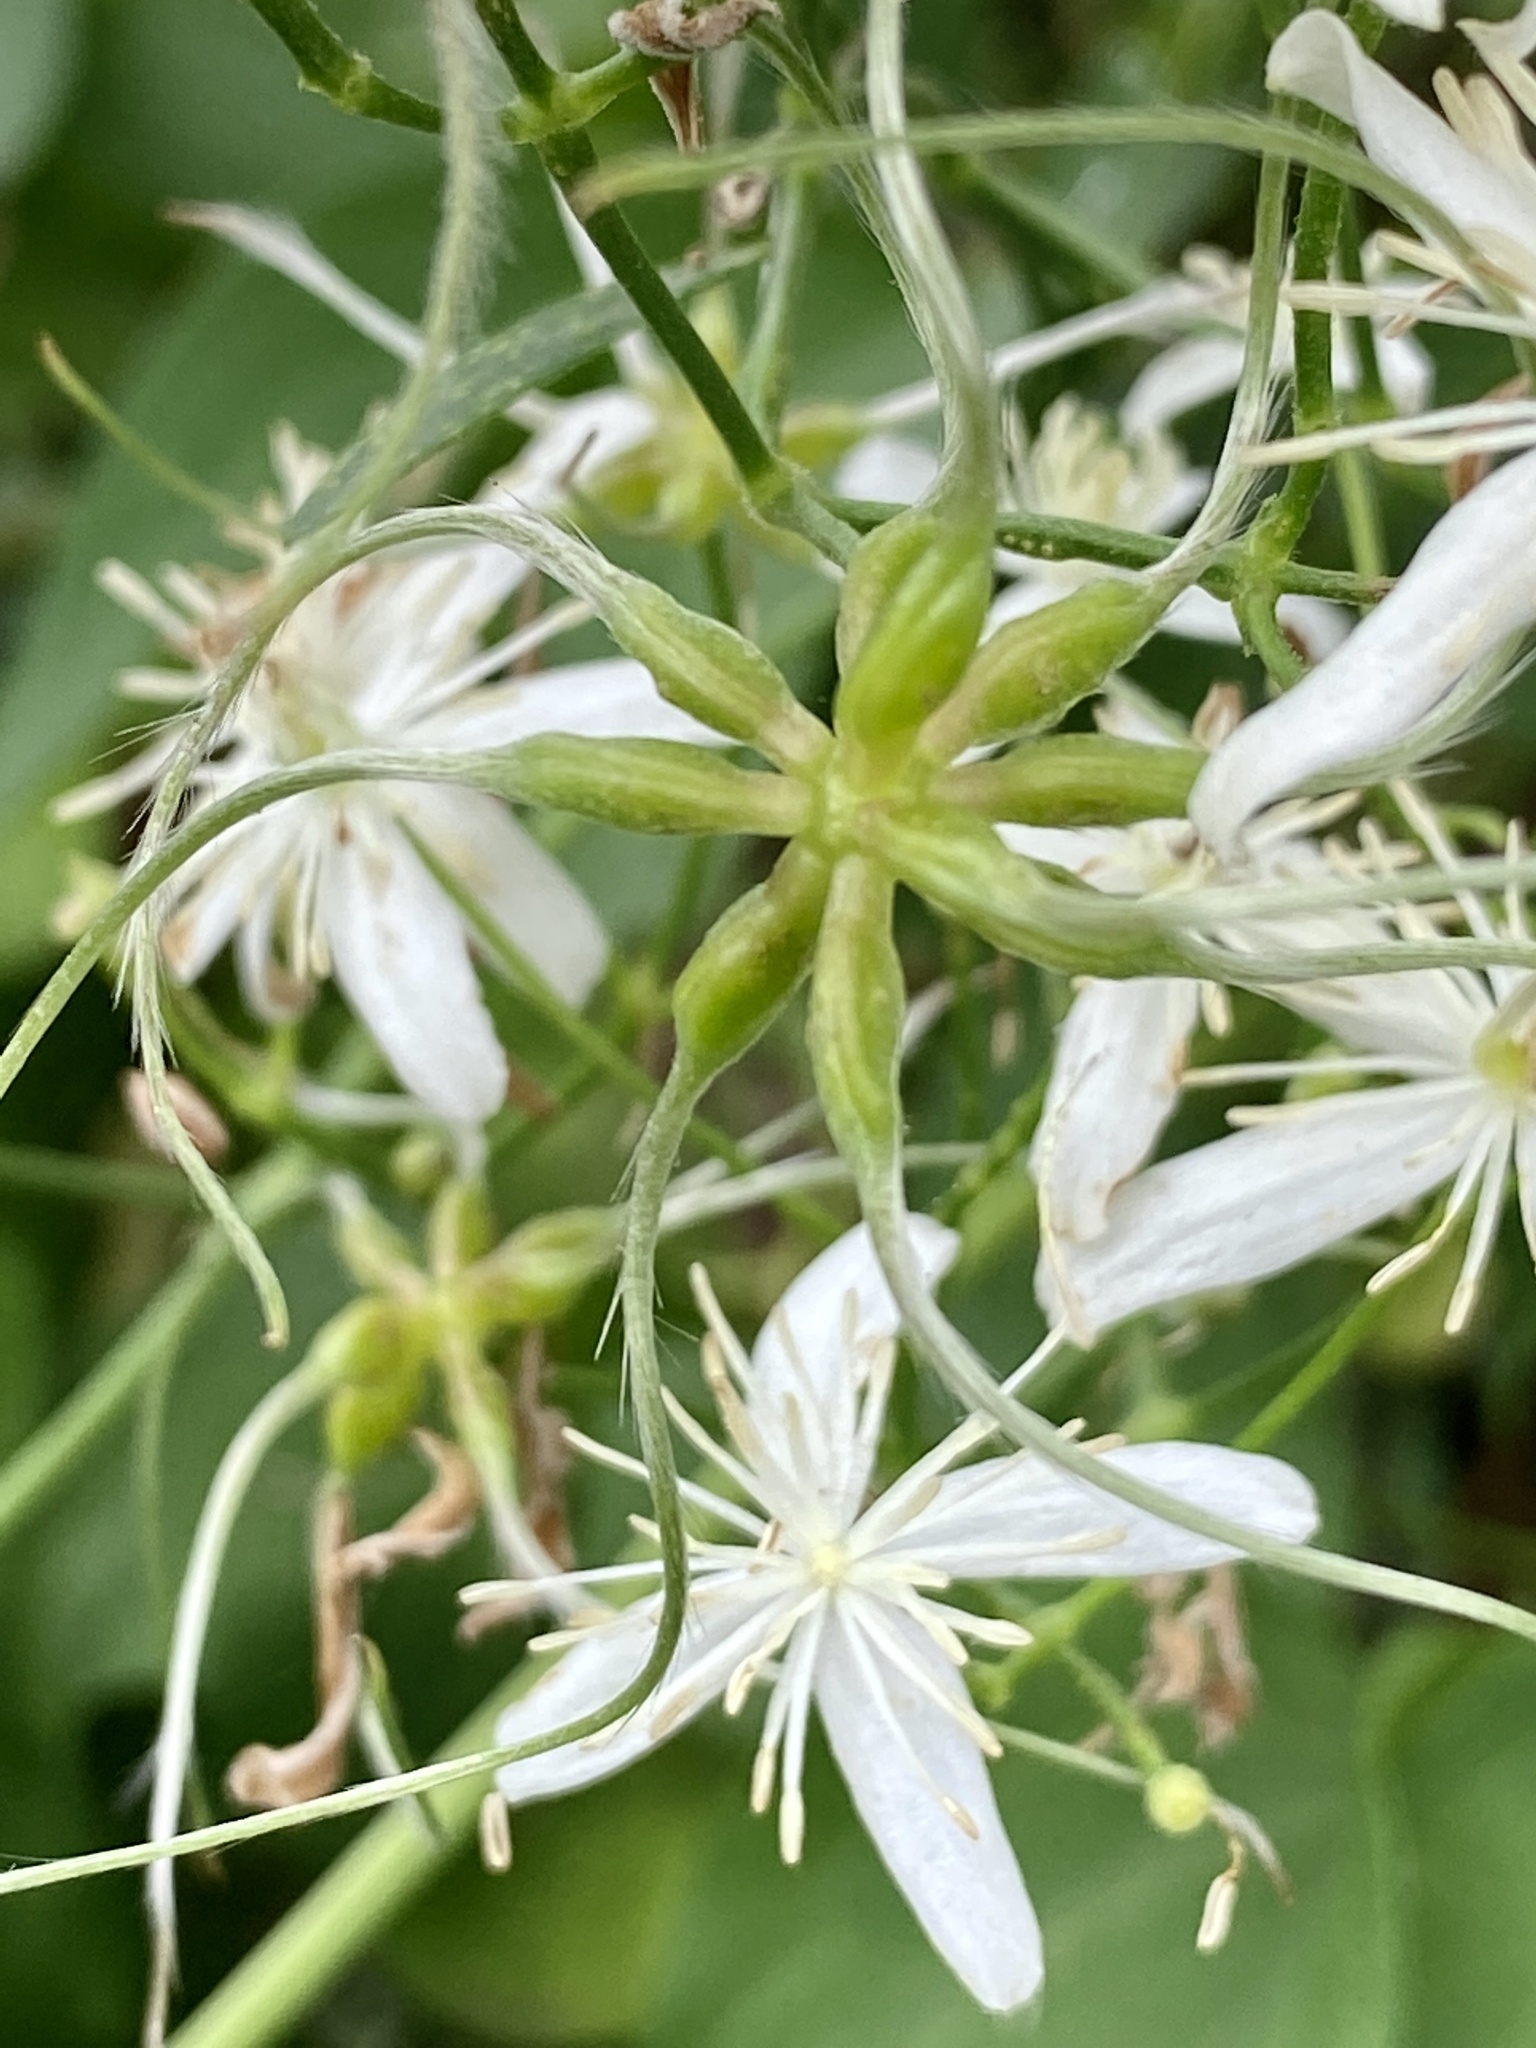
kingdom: Plantae
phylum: Tracheophyta
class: Magnoliopsida
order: Ranunculales
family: Ranunculaceae
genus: Clematis
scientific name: Clematis terniflora
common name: Sweet autumn clematis
